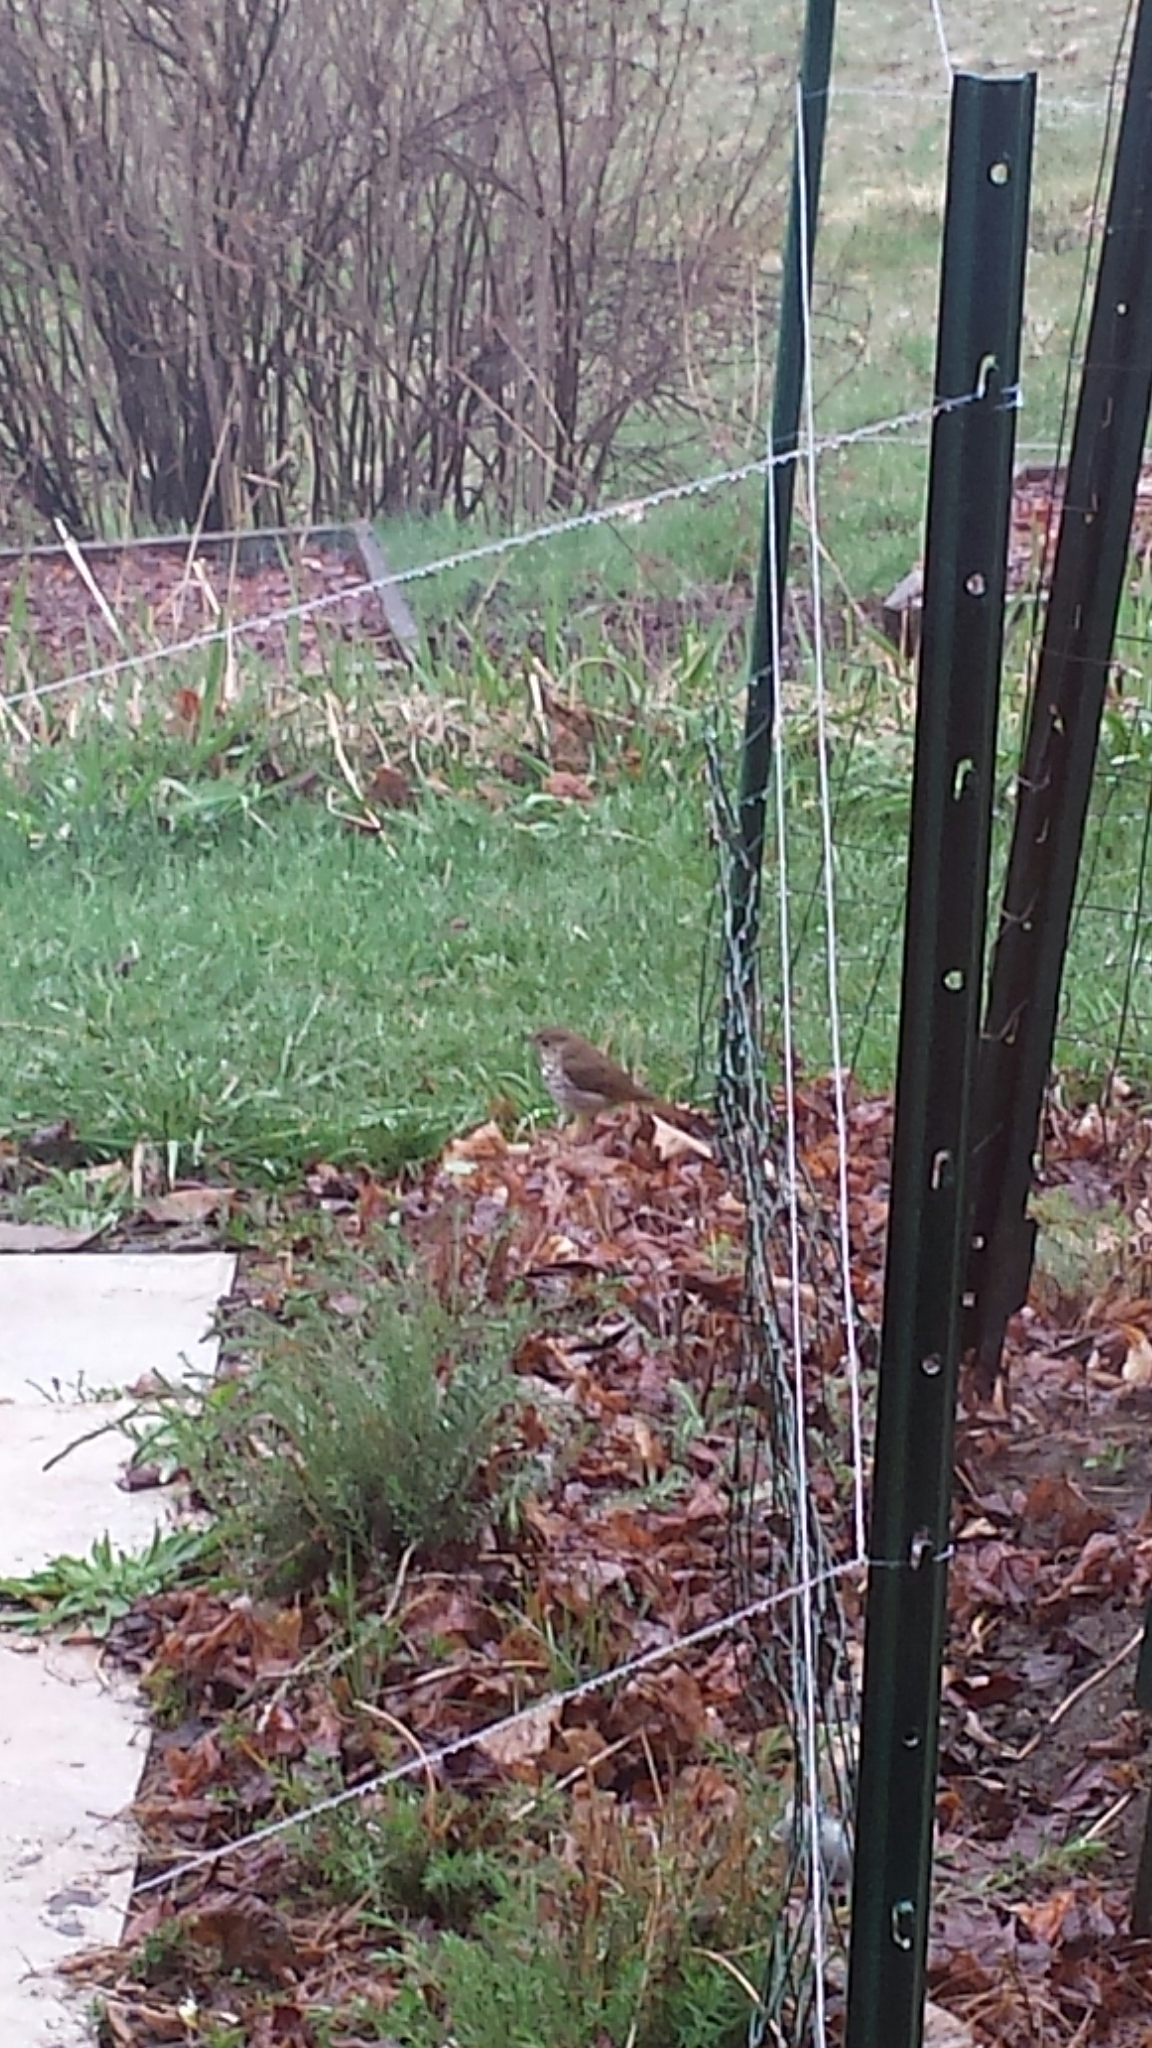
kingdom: Animalia
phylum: Chordata
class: Aves
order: Passeriformes
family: Turdidae
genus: Catharus
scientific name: Catharus guttatus
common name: Hermit thrush
